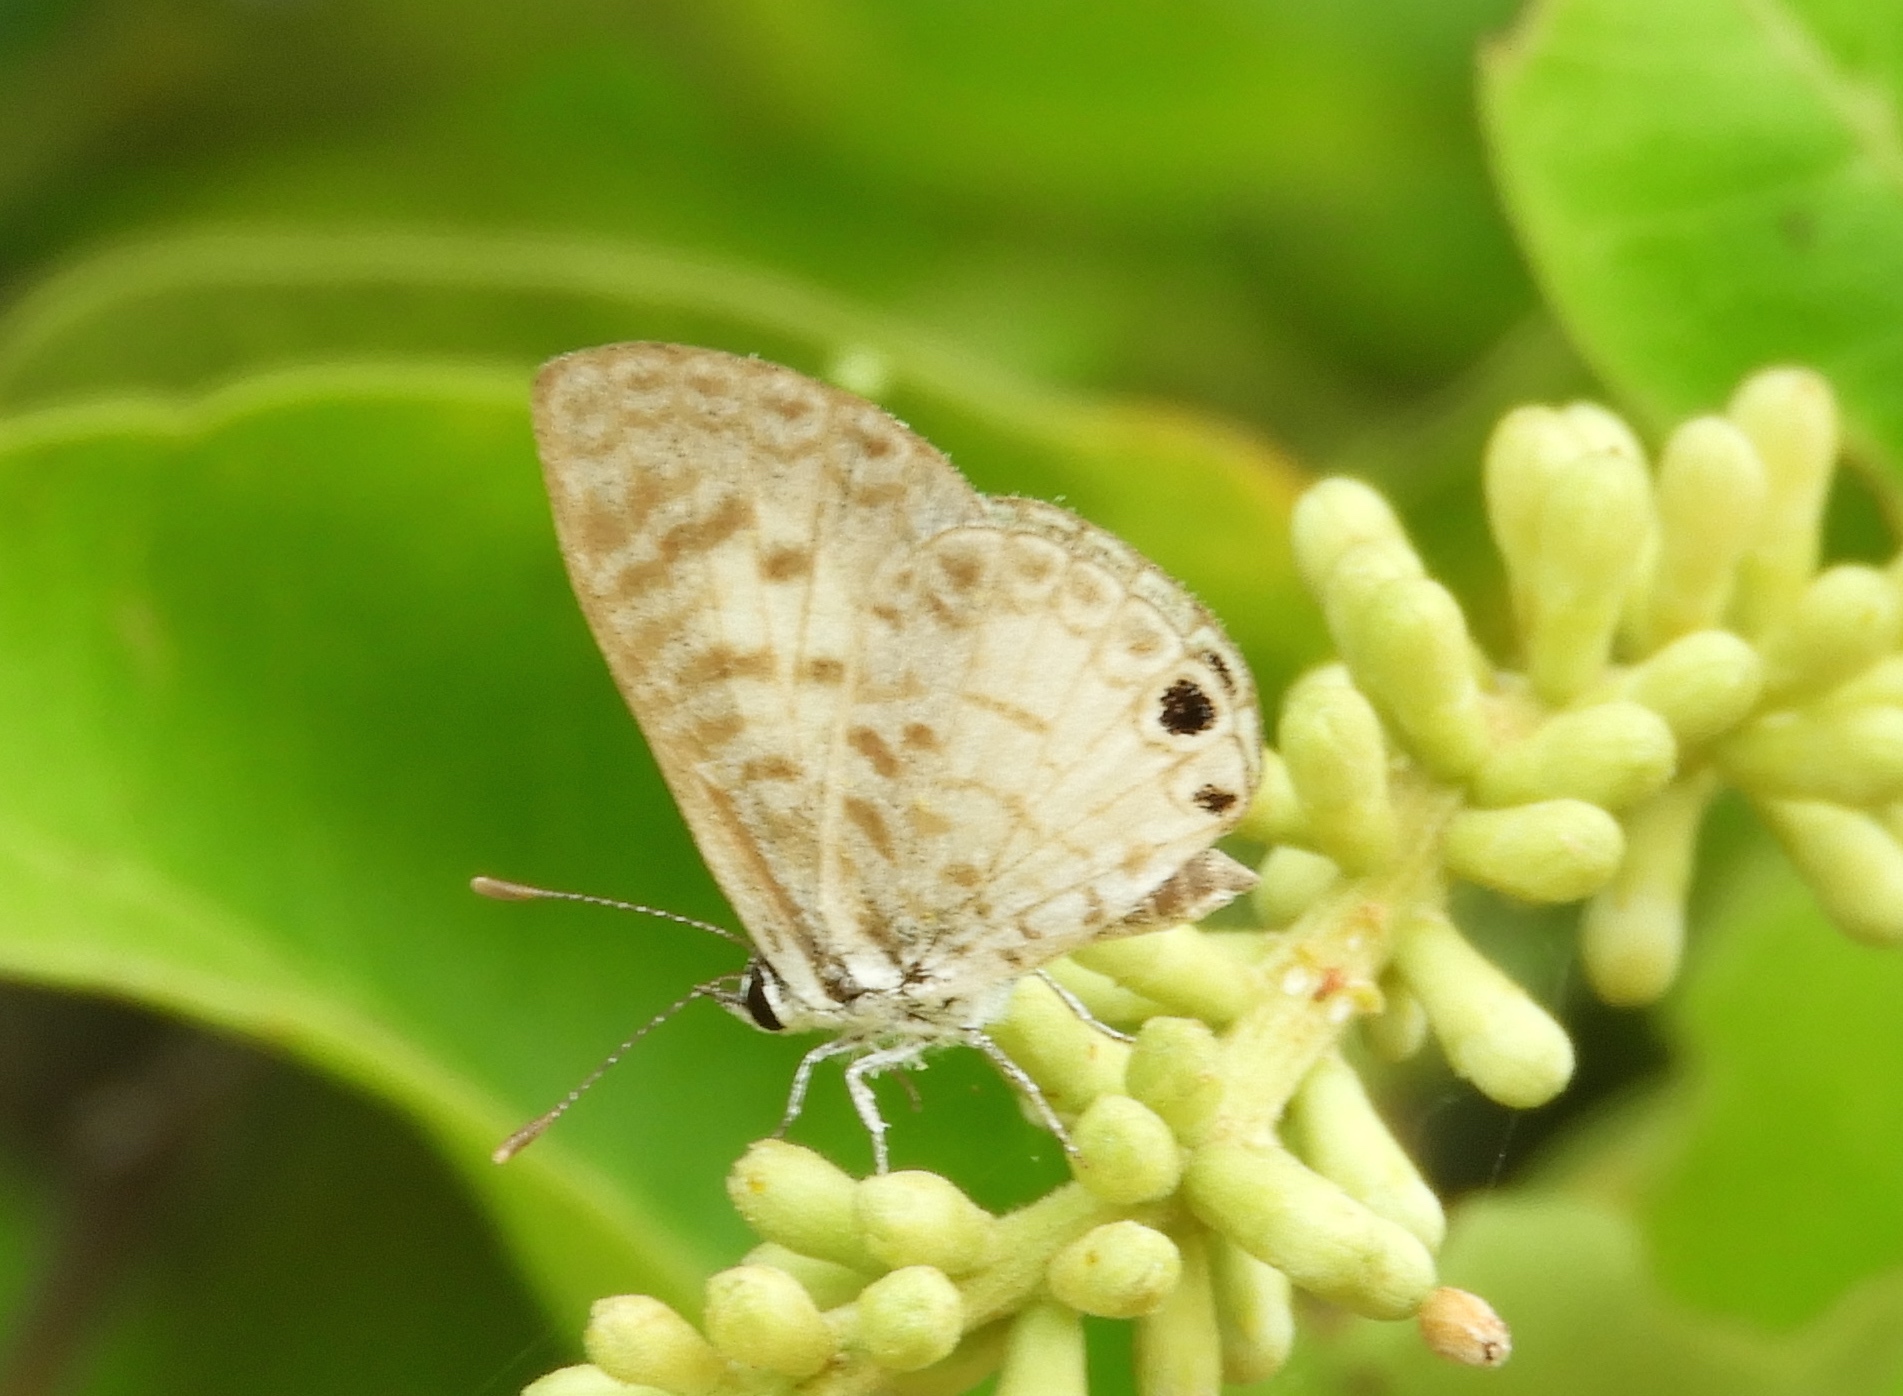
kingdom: Animalia
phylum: Arthropoda
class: Insecta
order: Lepidoptera
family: Lycaenidae
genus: Leptotes
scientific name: Leptotes cassius
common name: Cassius blue
